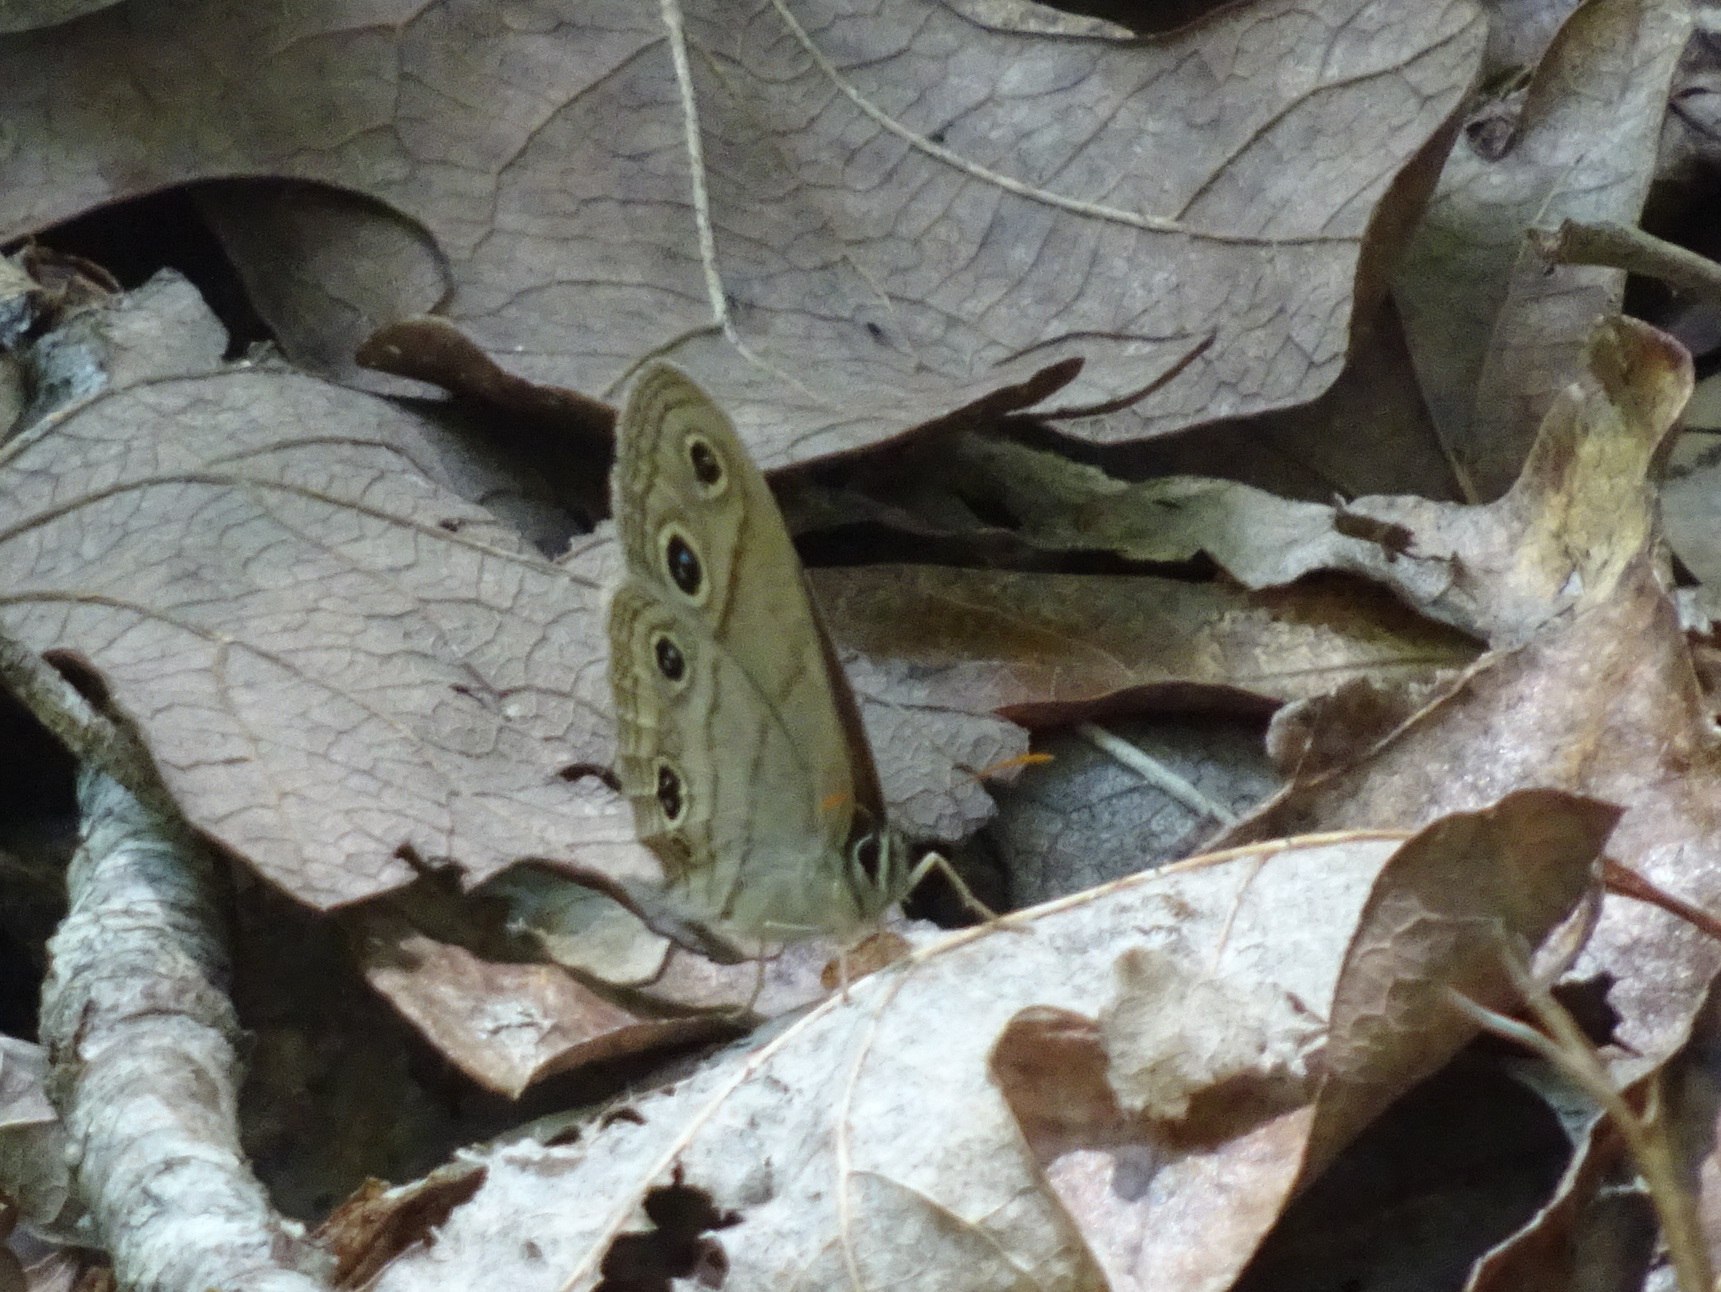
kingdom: Animalia
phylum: Arthropoda
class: Insecta
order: Lepidoptera
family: Nymphalidae
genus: Euptychia
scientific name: Euptychia cymela
